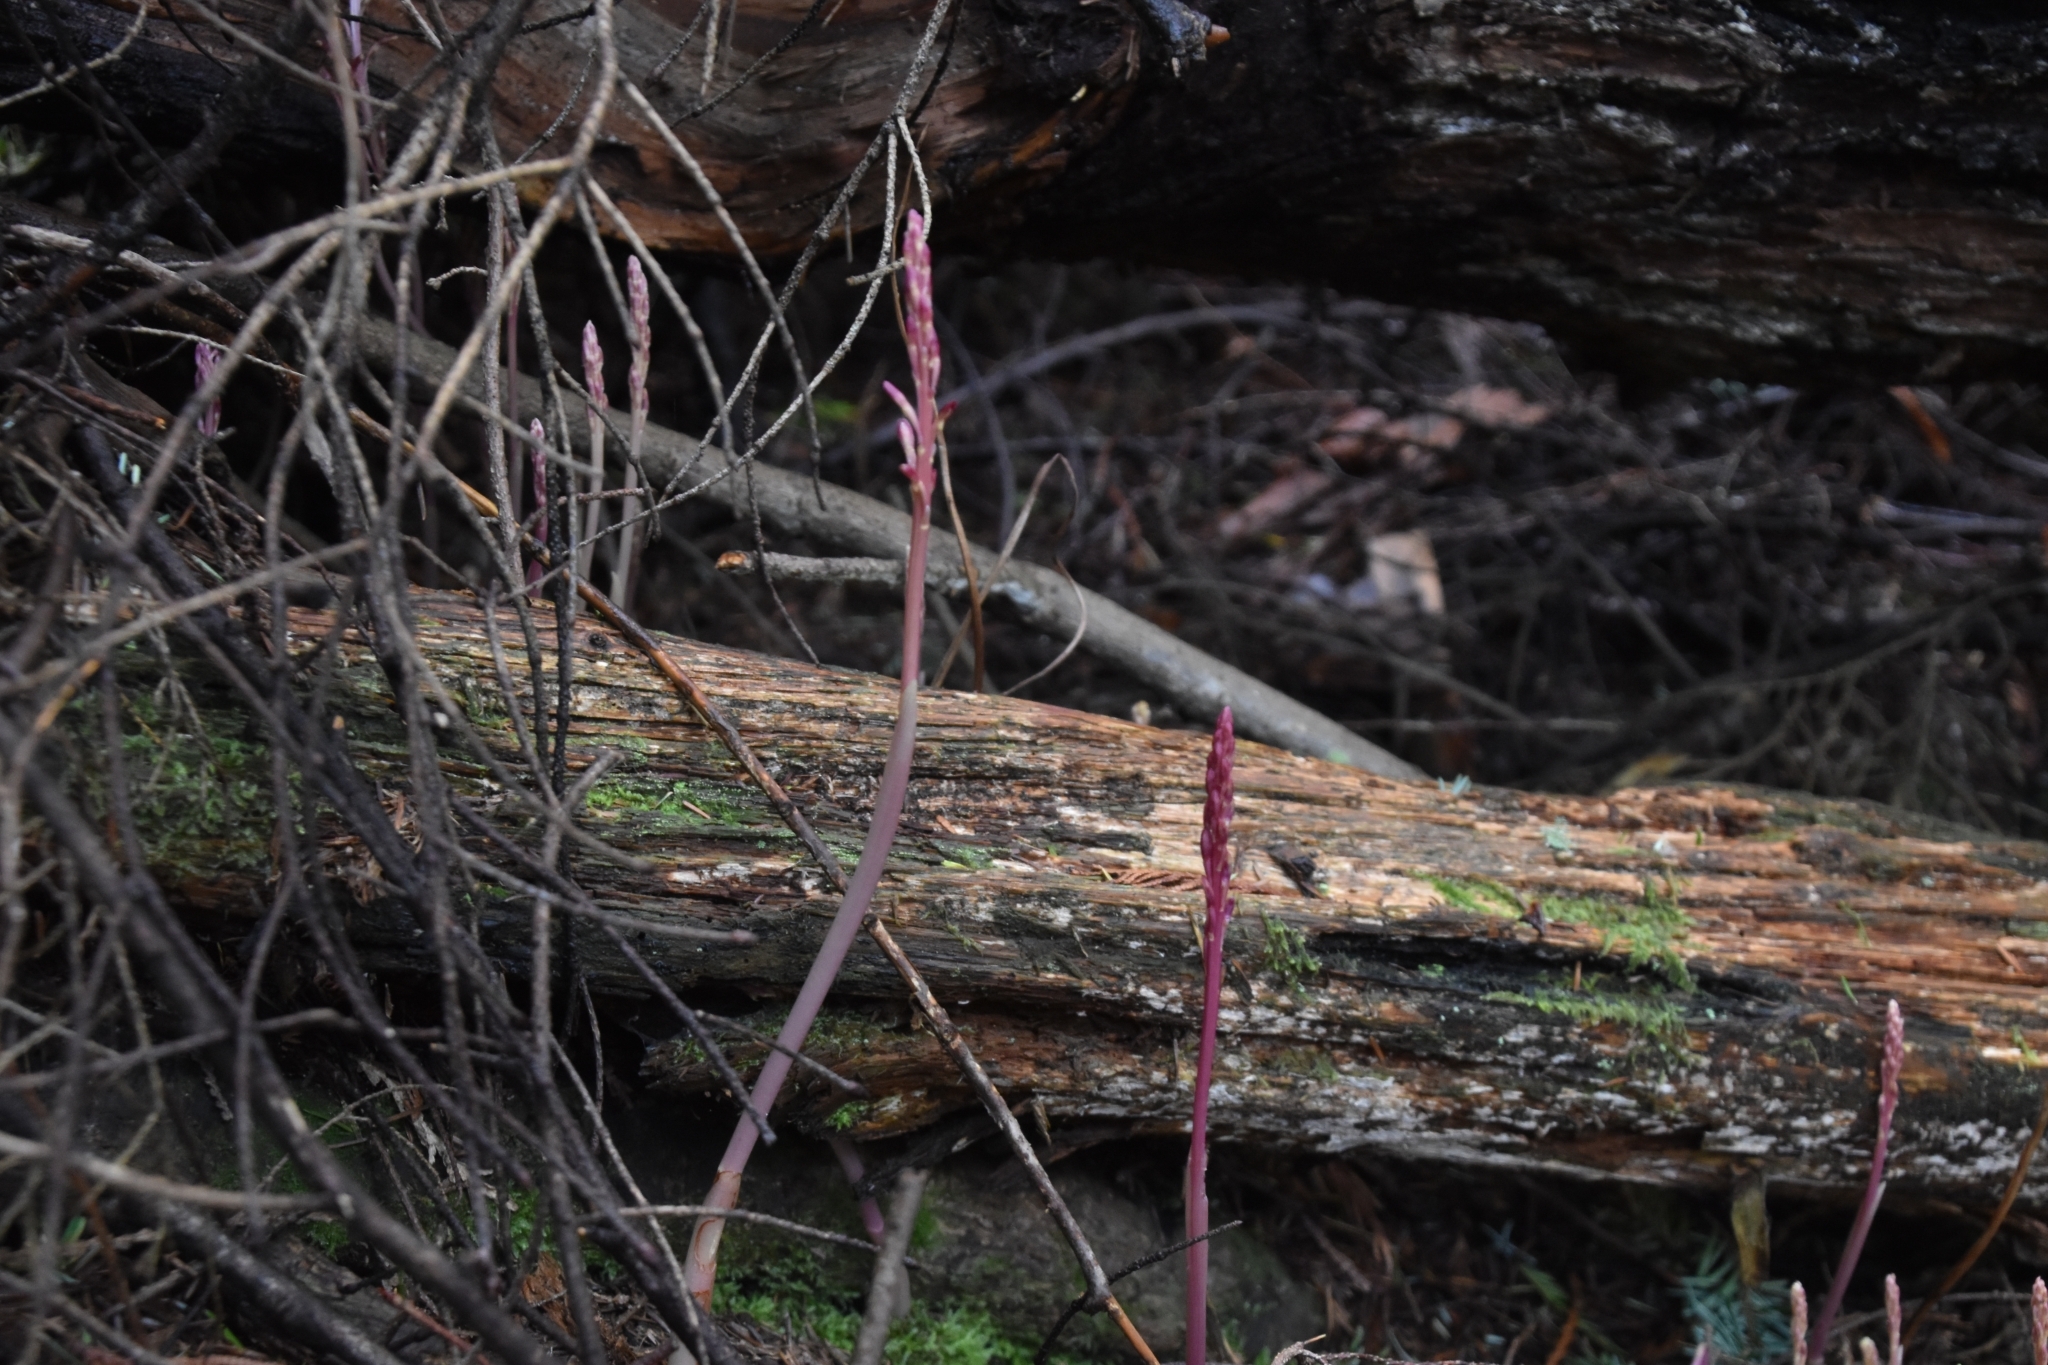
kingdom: Plantae
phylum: Tracheophyta
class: Liliopsida
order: Asparagales
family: Orchidaceae
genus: Corallorhiza
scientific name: Corallorhiza mertensiana
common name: Pacific coralroot
